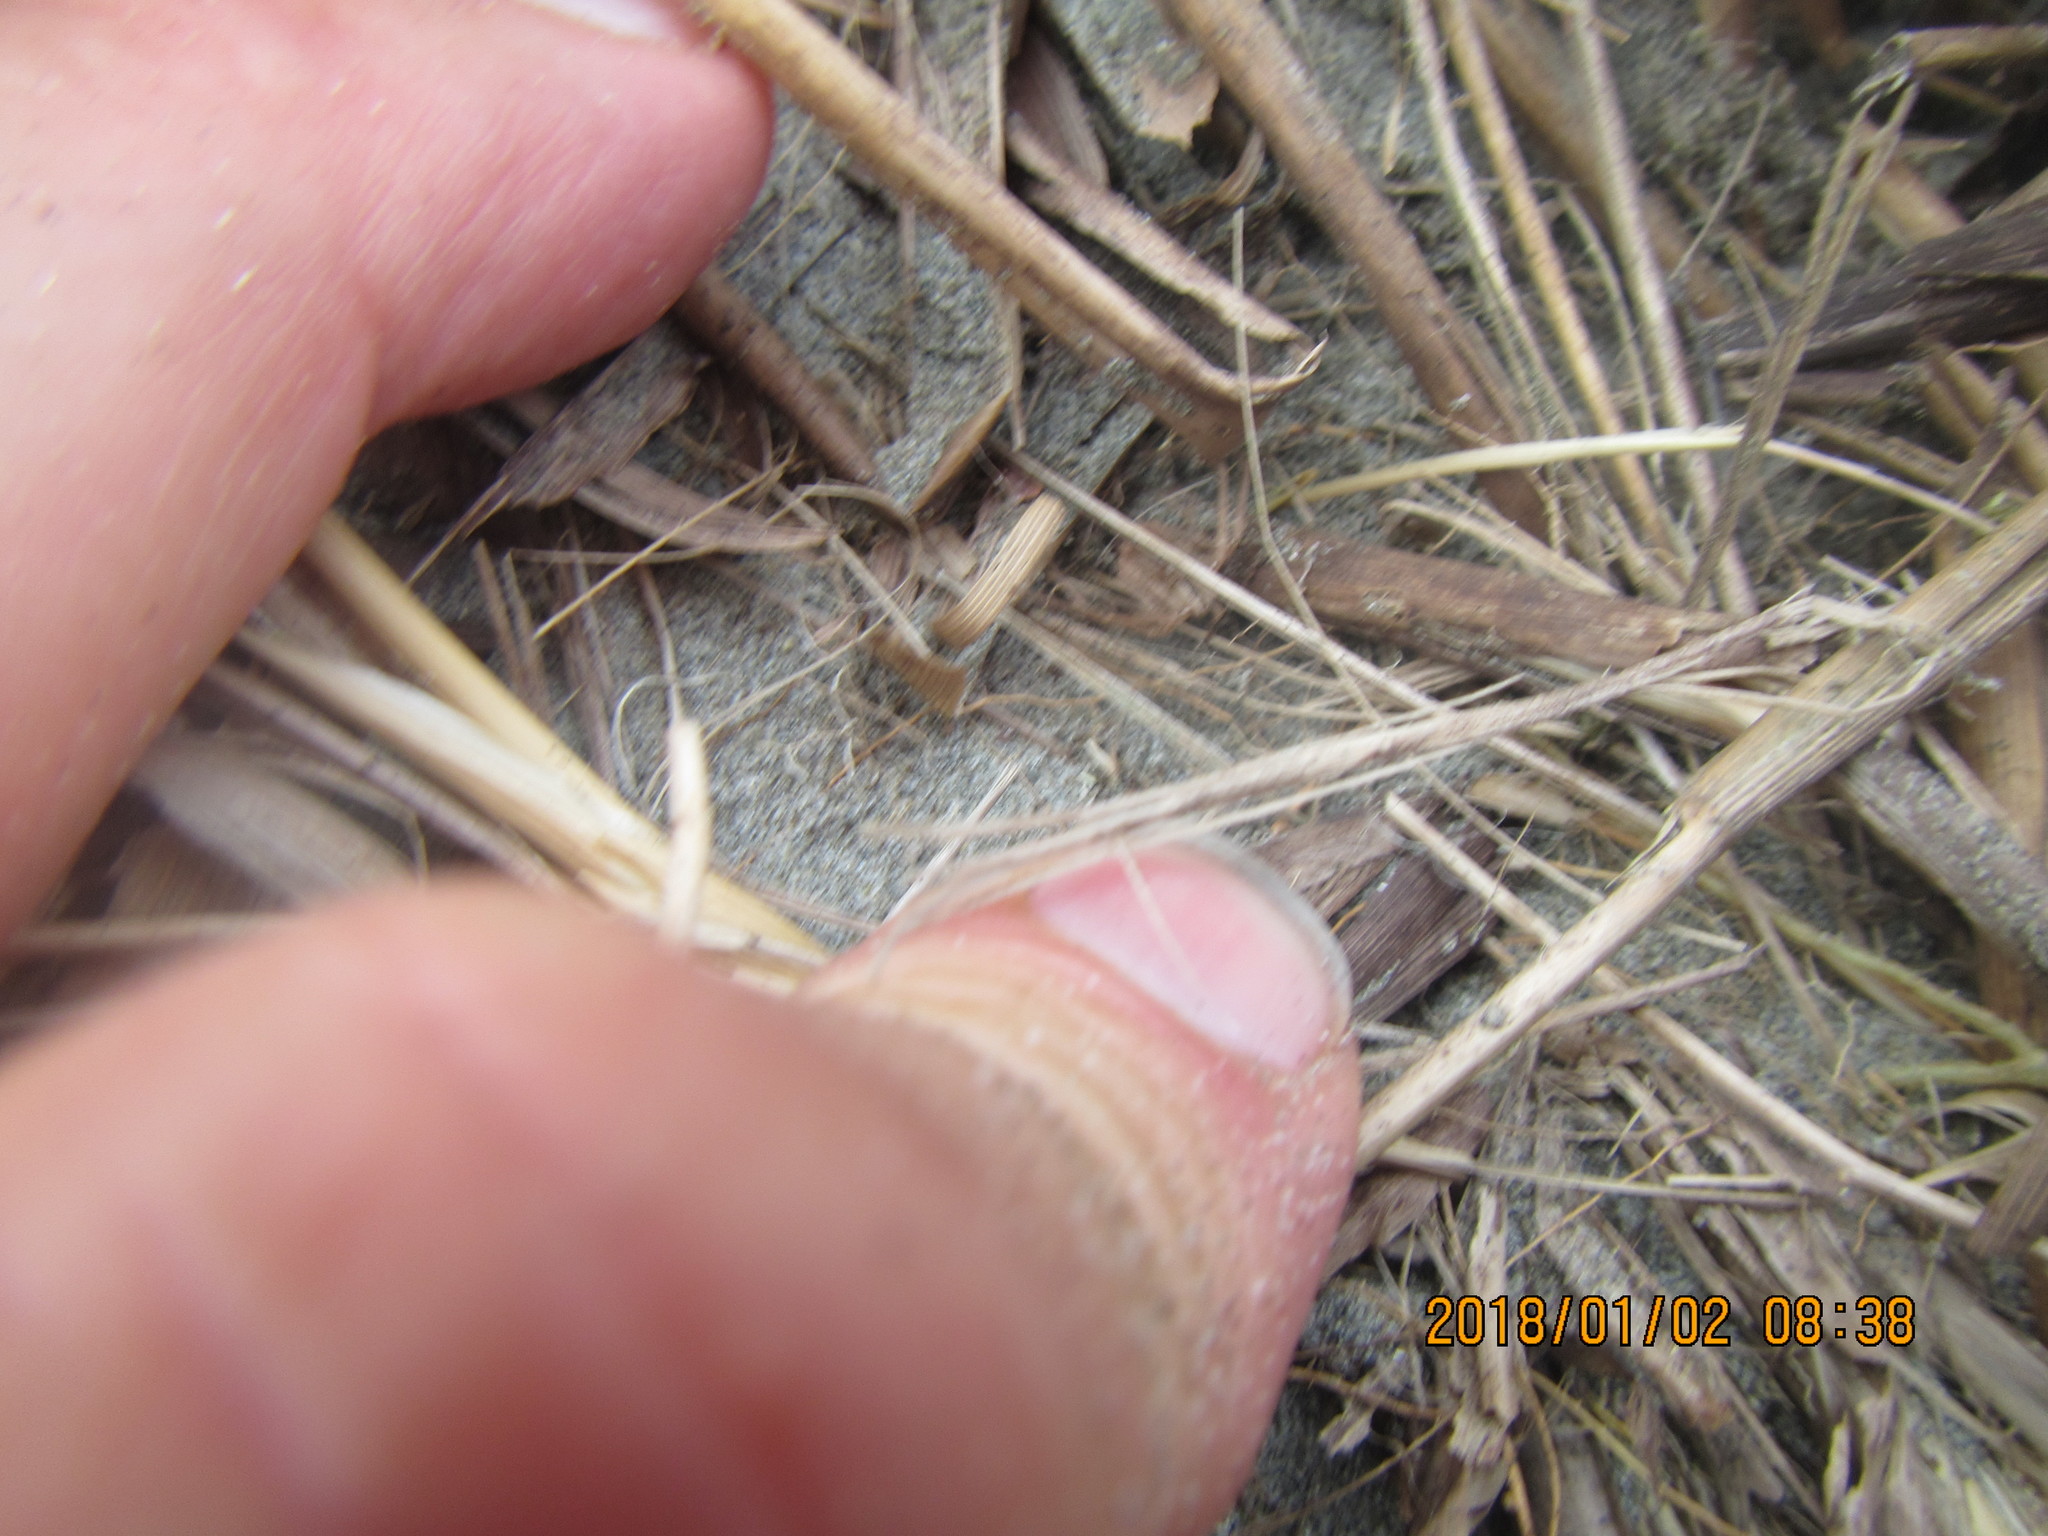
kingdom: Animalia
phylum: Arthropoda
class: Arachnida
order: Araneae
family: Thomisidae
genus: Sidymella
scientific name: Sidymella trapezia
